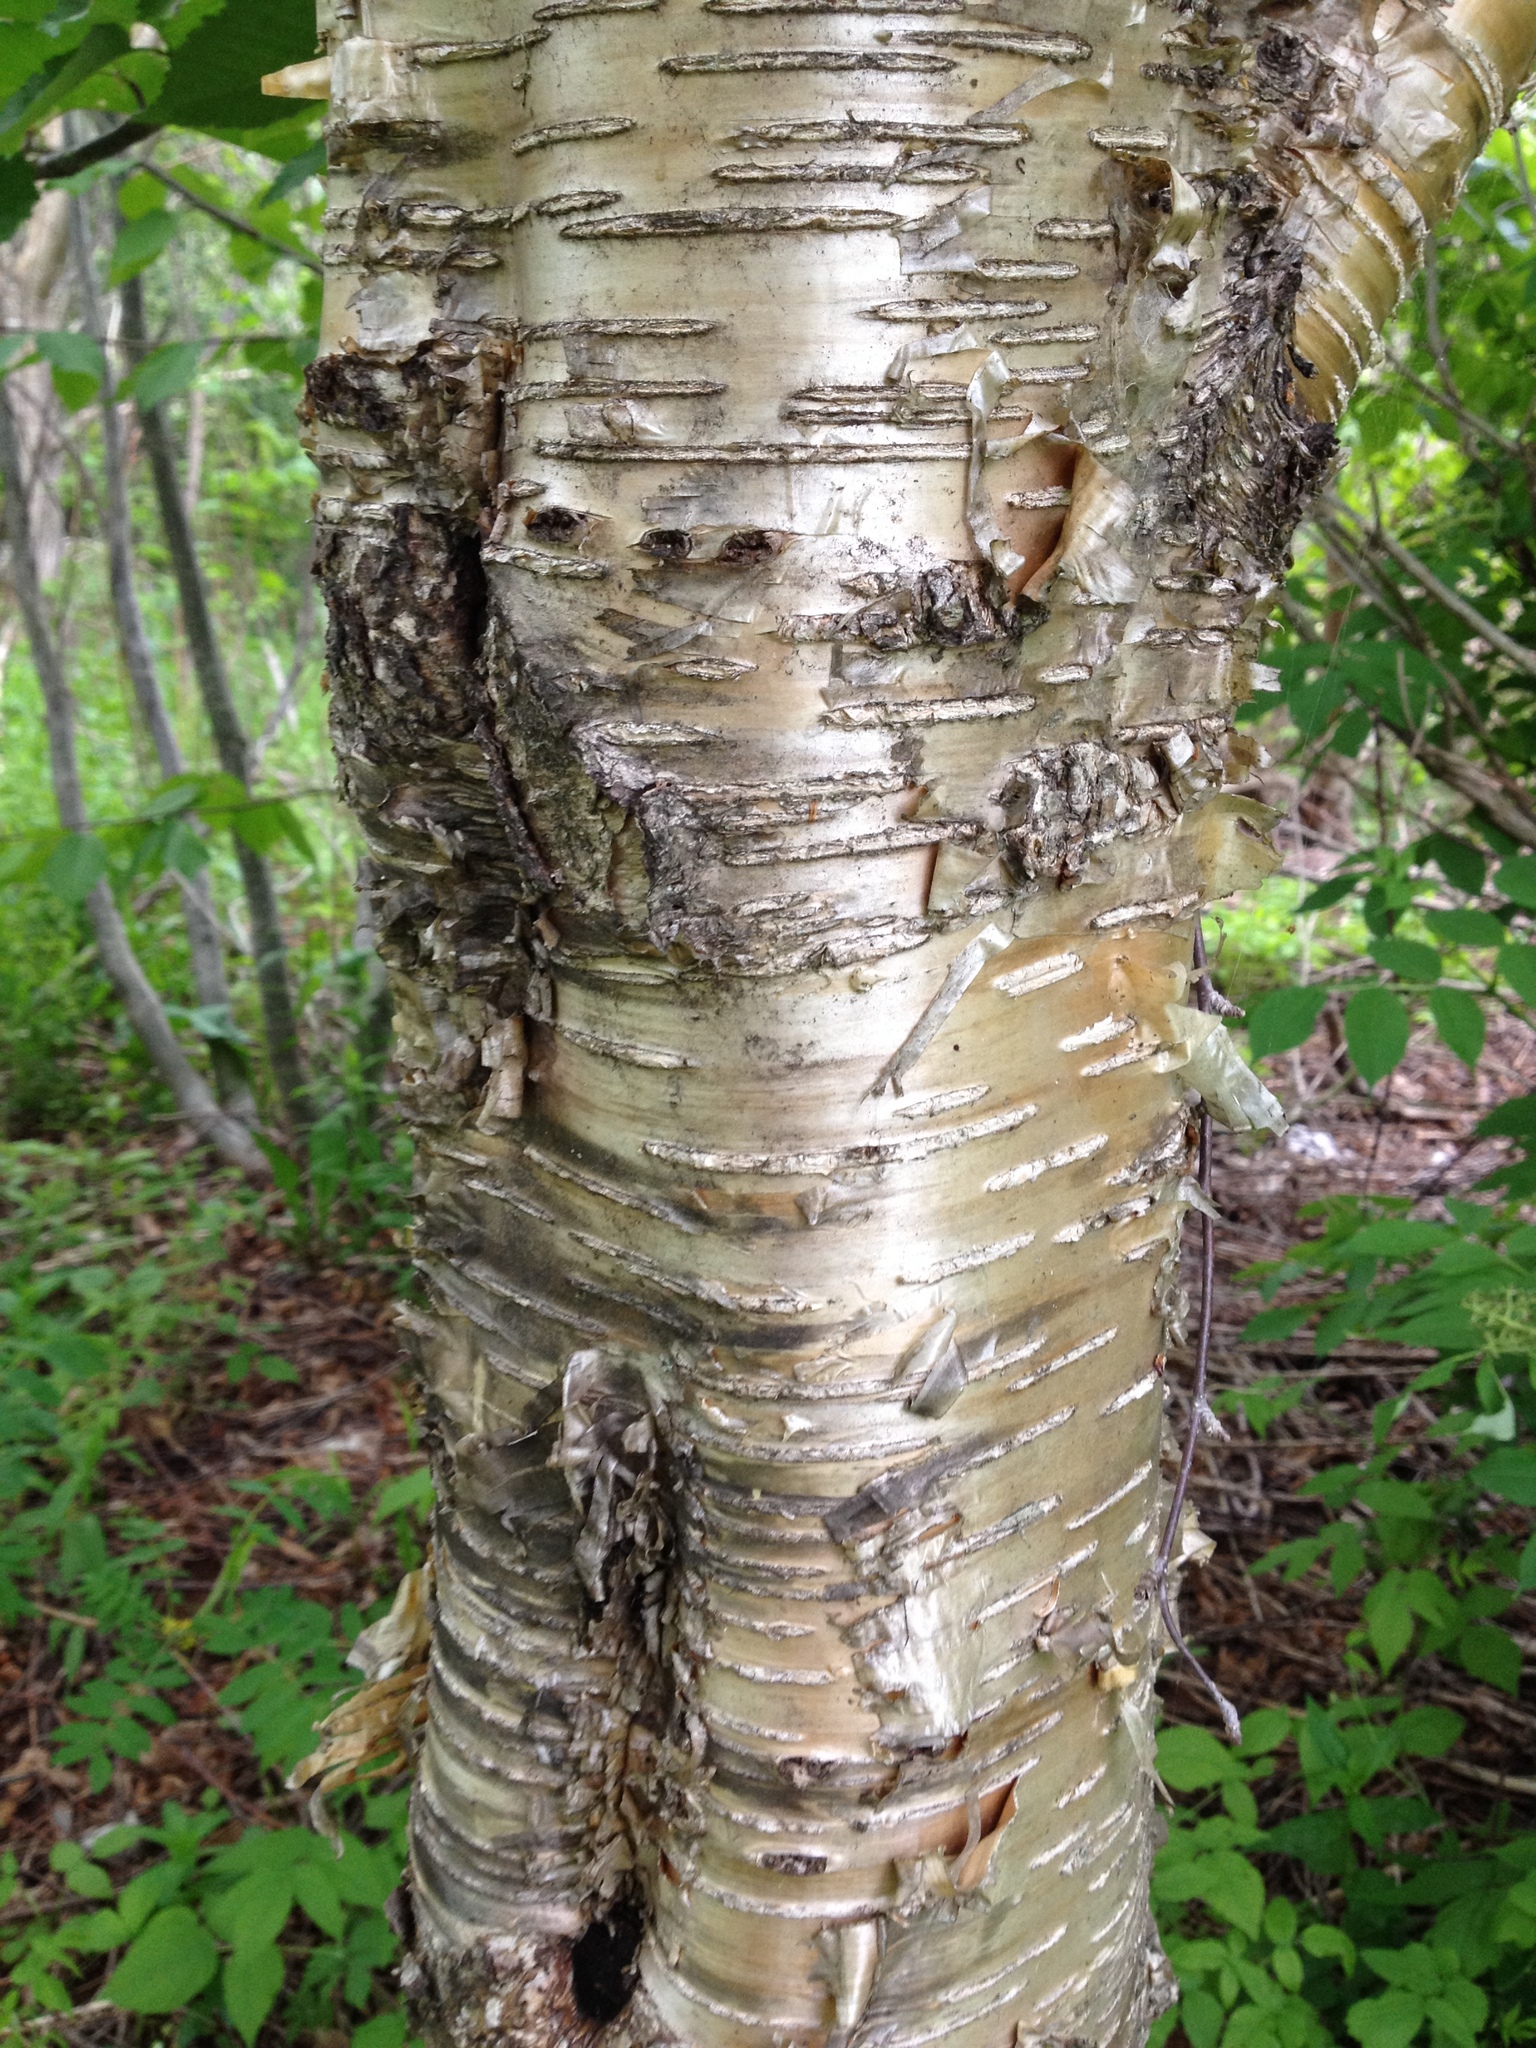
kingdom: Plantae
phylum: Tracheophyta
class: Magnoliopsida
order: Fagales
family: Betulaceae
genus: Betula
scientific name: Betula alleghaniensis
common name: Yellow birch
